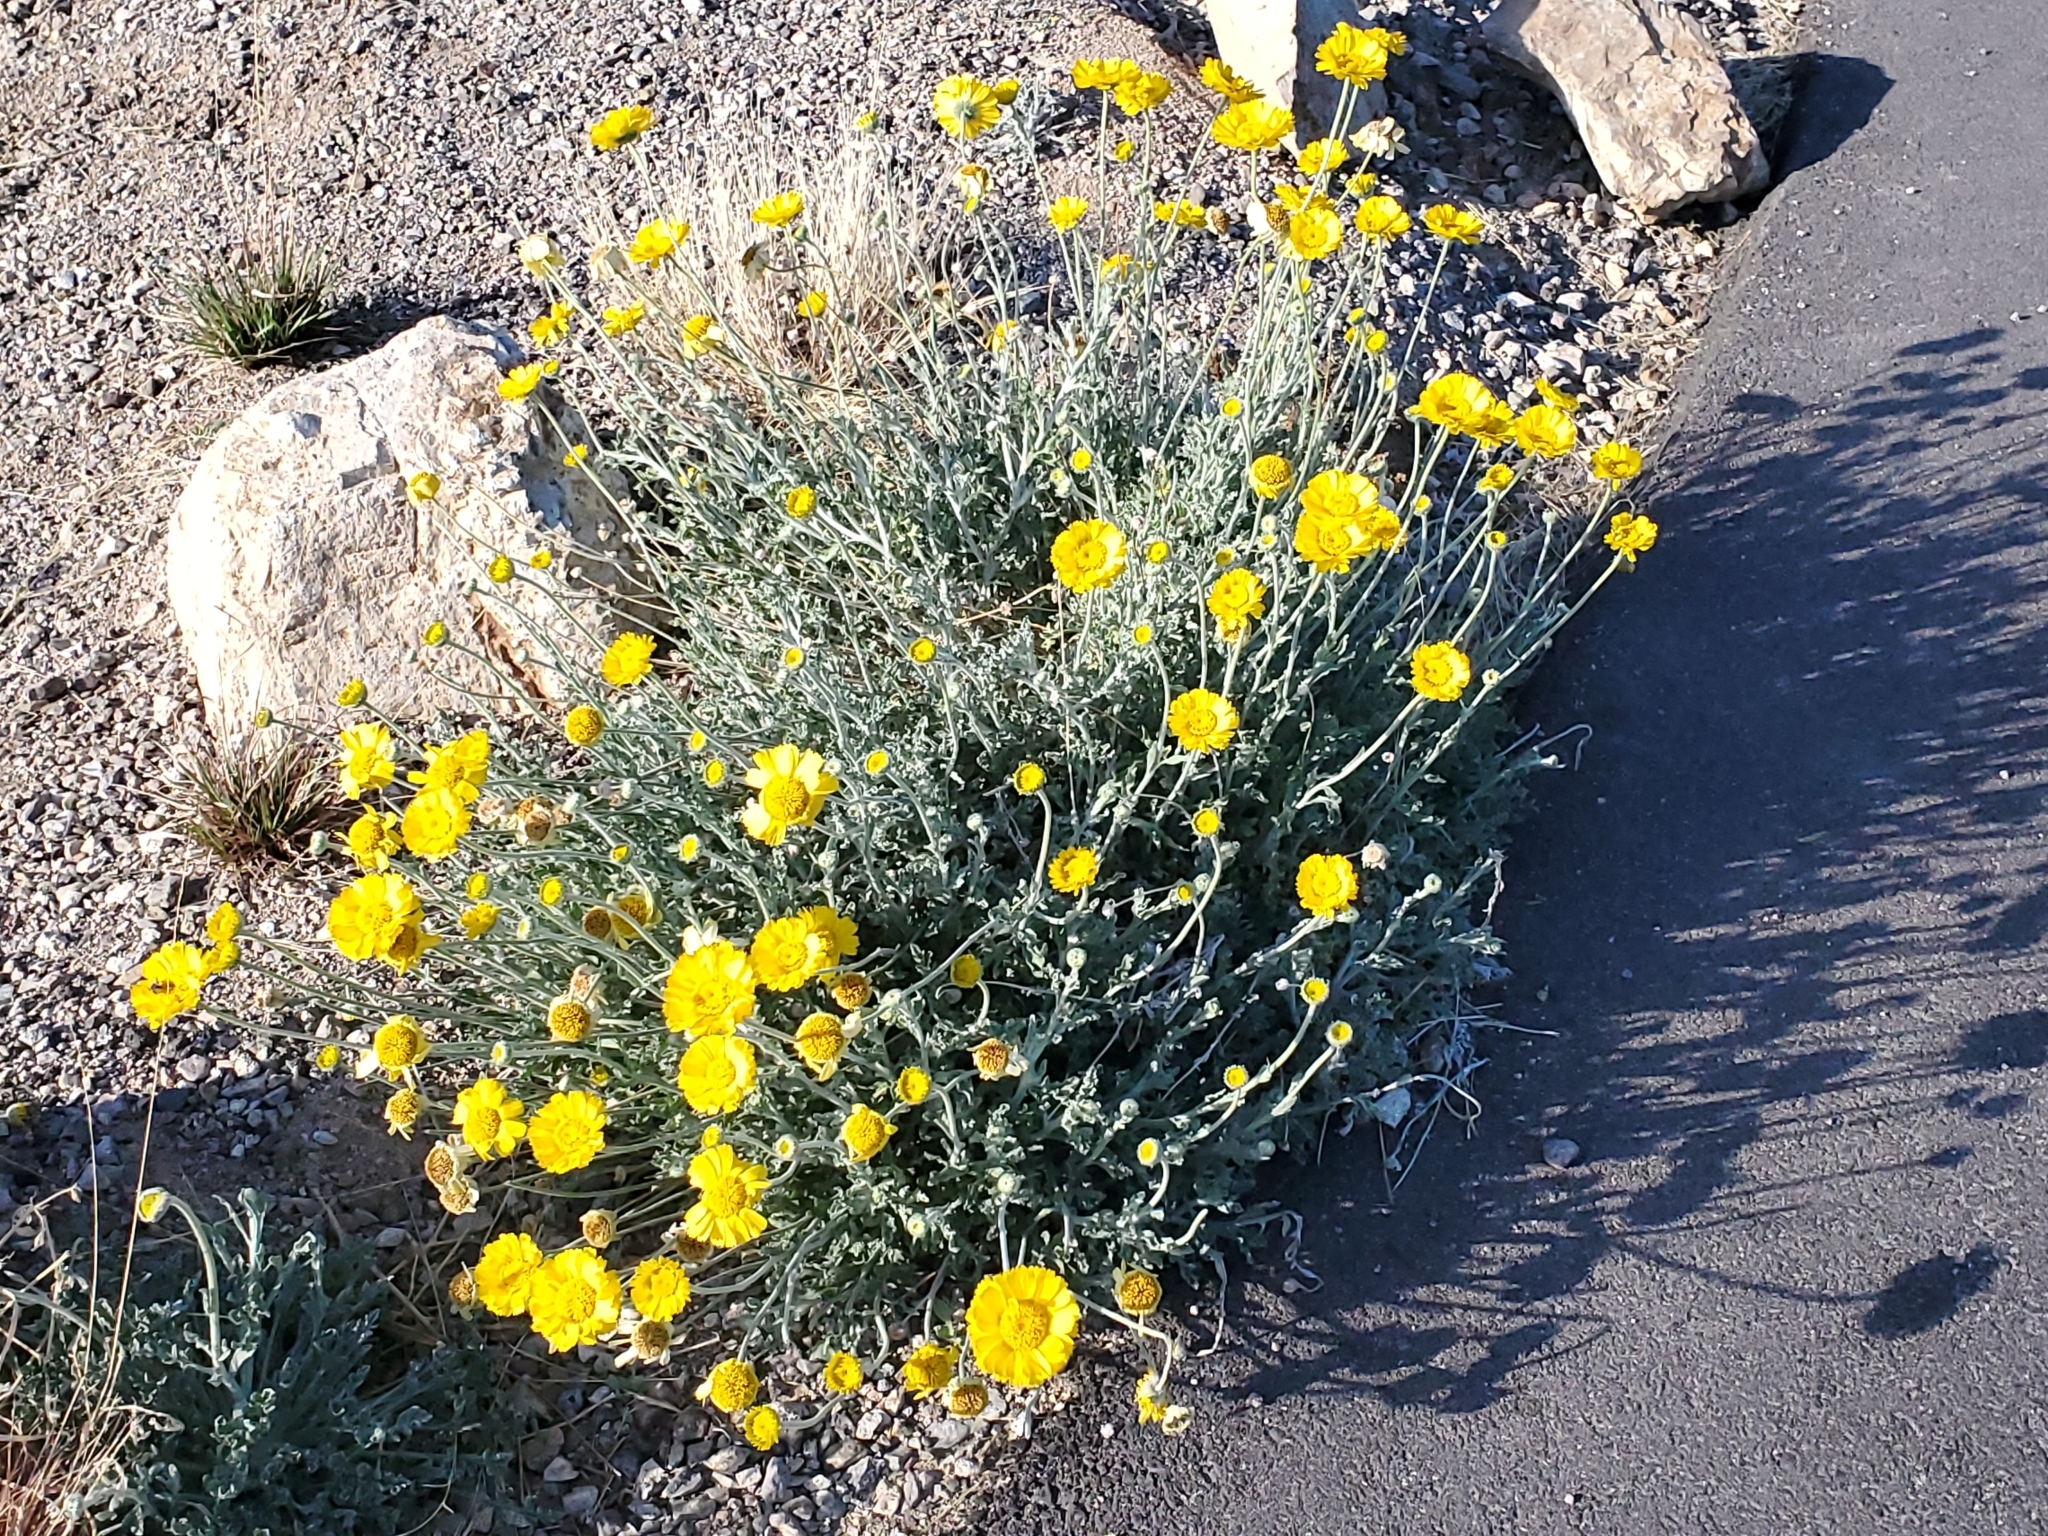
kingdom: Plantae
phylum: Tracheophyta
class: Magnoliopsida
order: Asterales
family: Asteraceae
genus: Baileya
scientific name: Baileya multiradiata
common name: Desert-marigold
